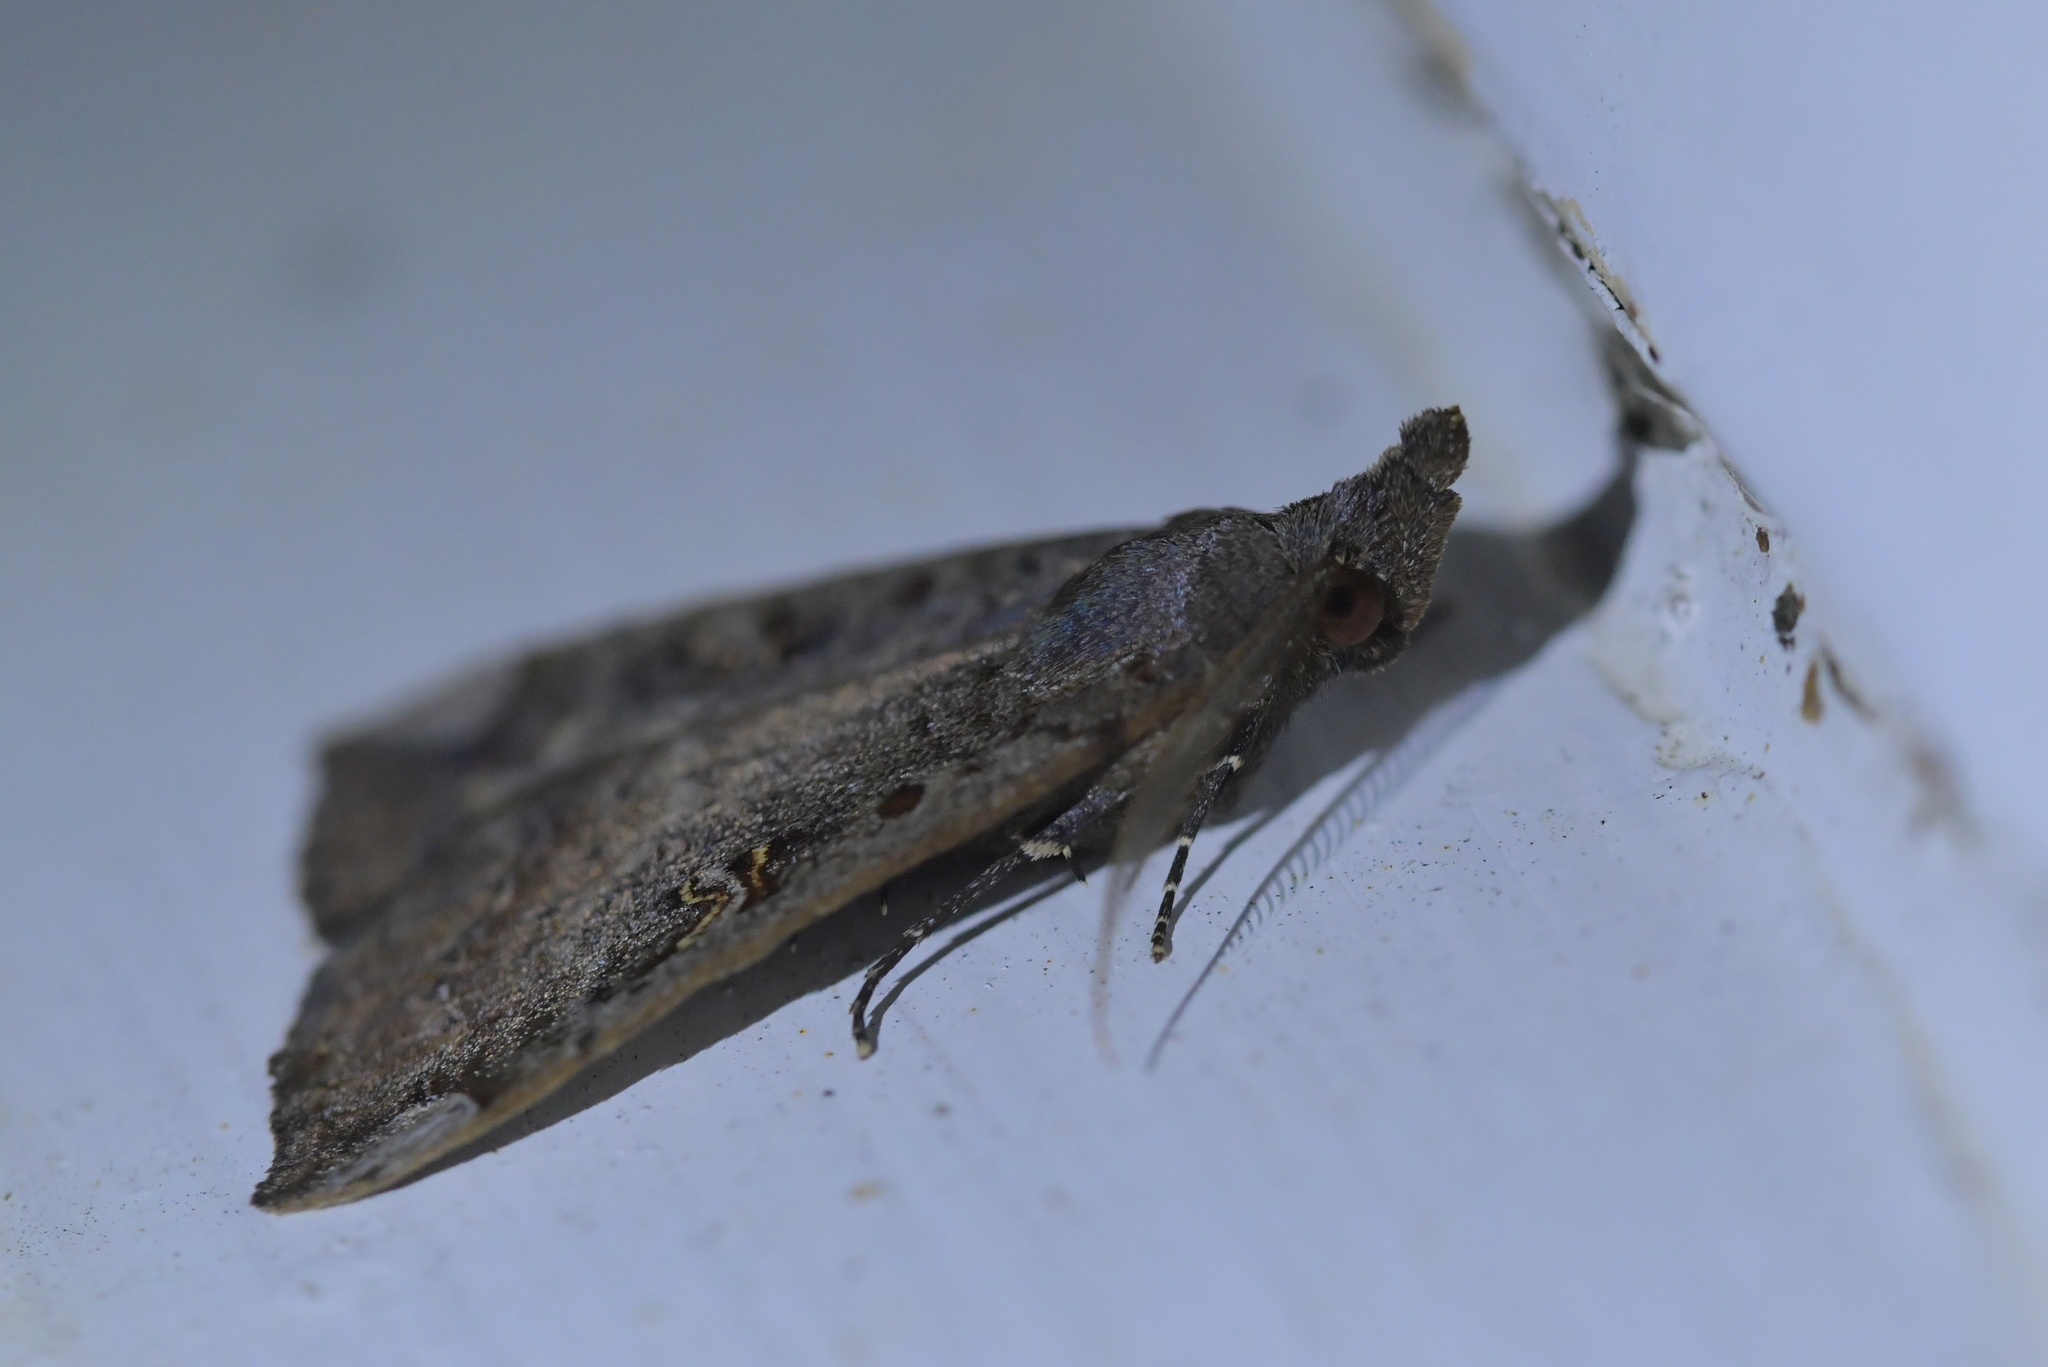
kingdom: Animalia
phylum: Arthropoda
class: Insecta
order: Lepidoptera
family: Erebidae
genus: Rhapsa
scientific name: Rhapsa scotosialis
